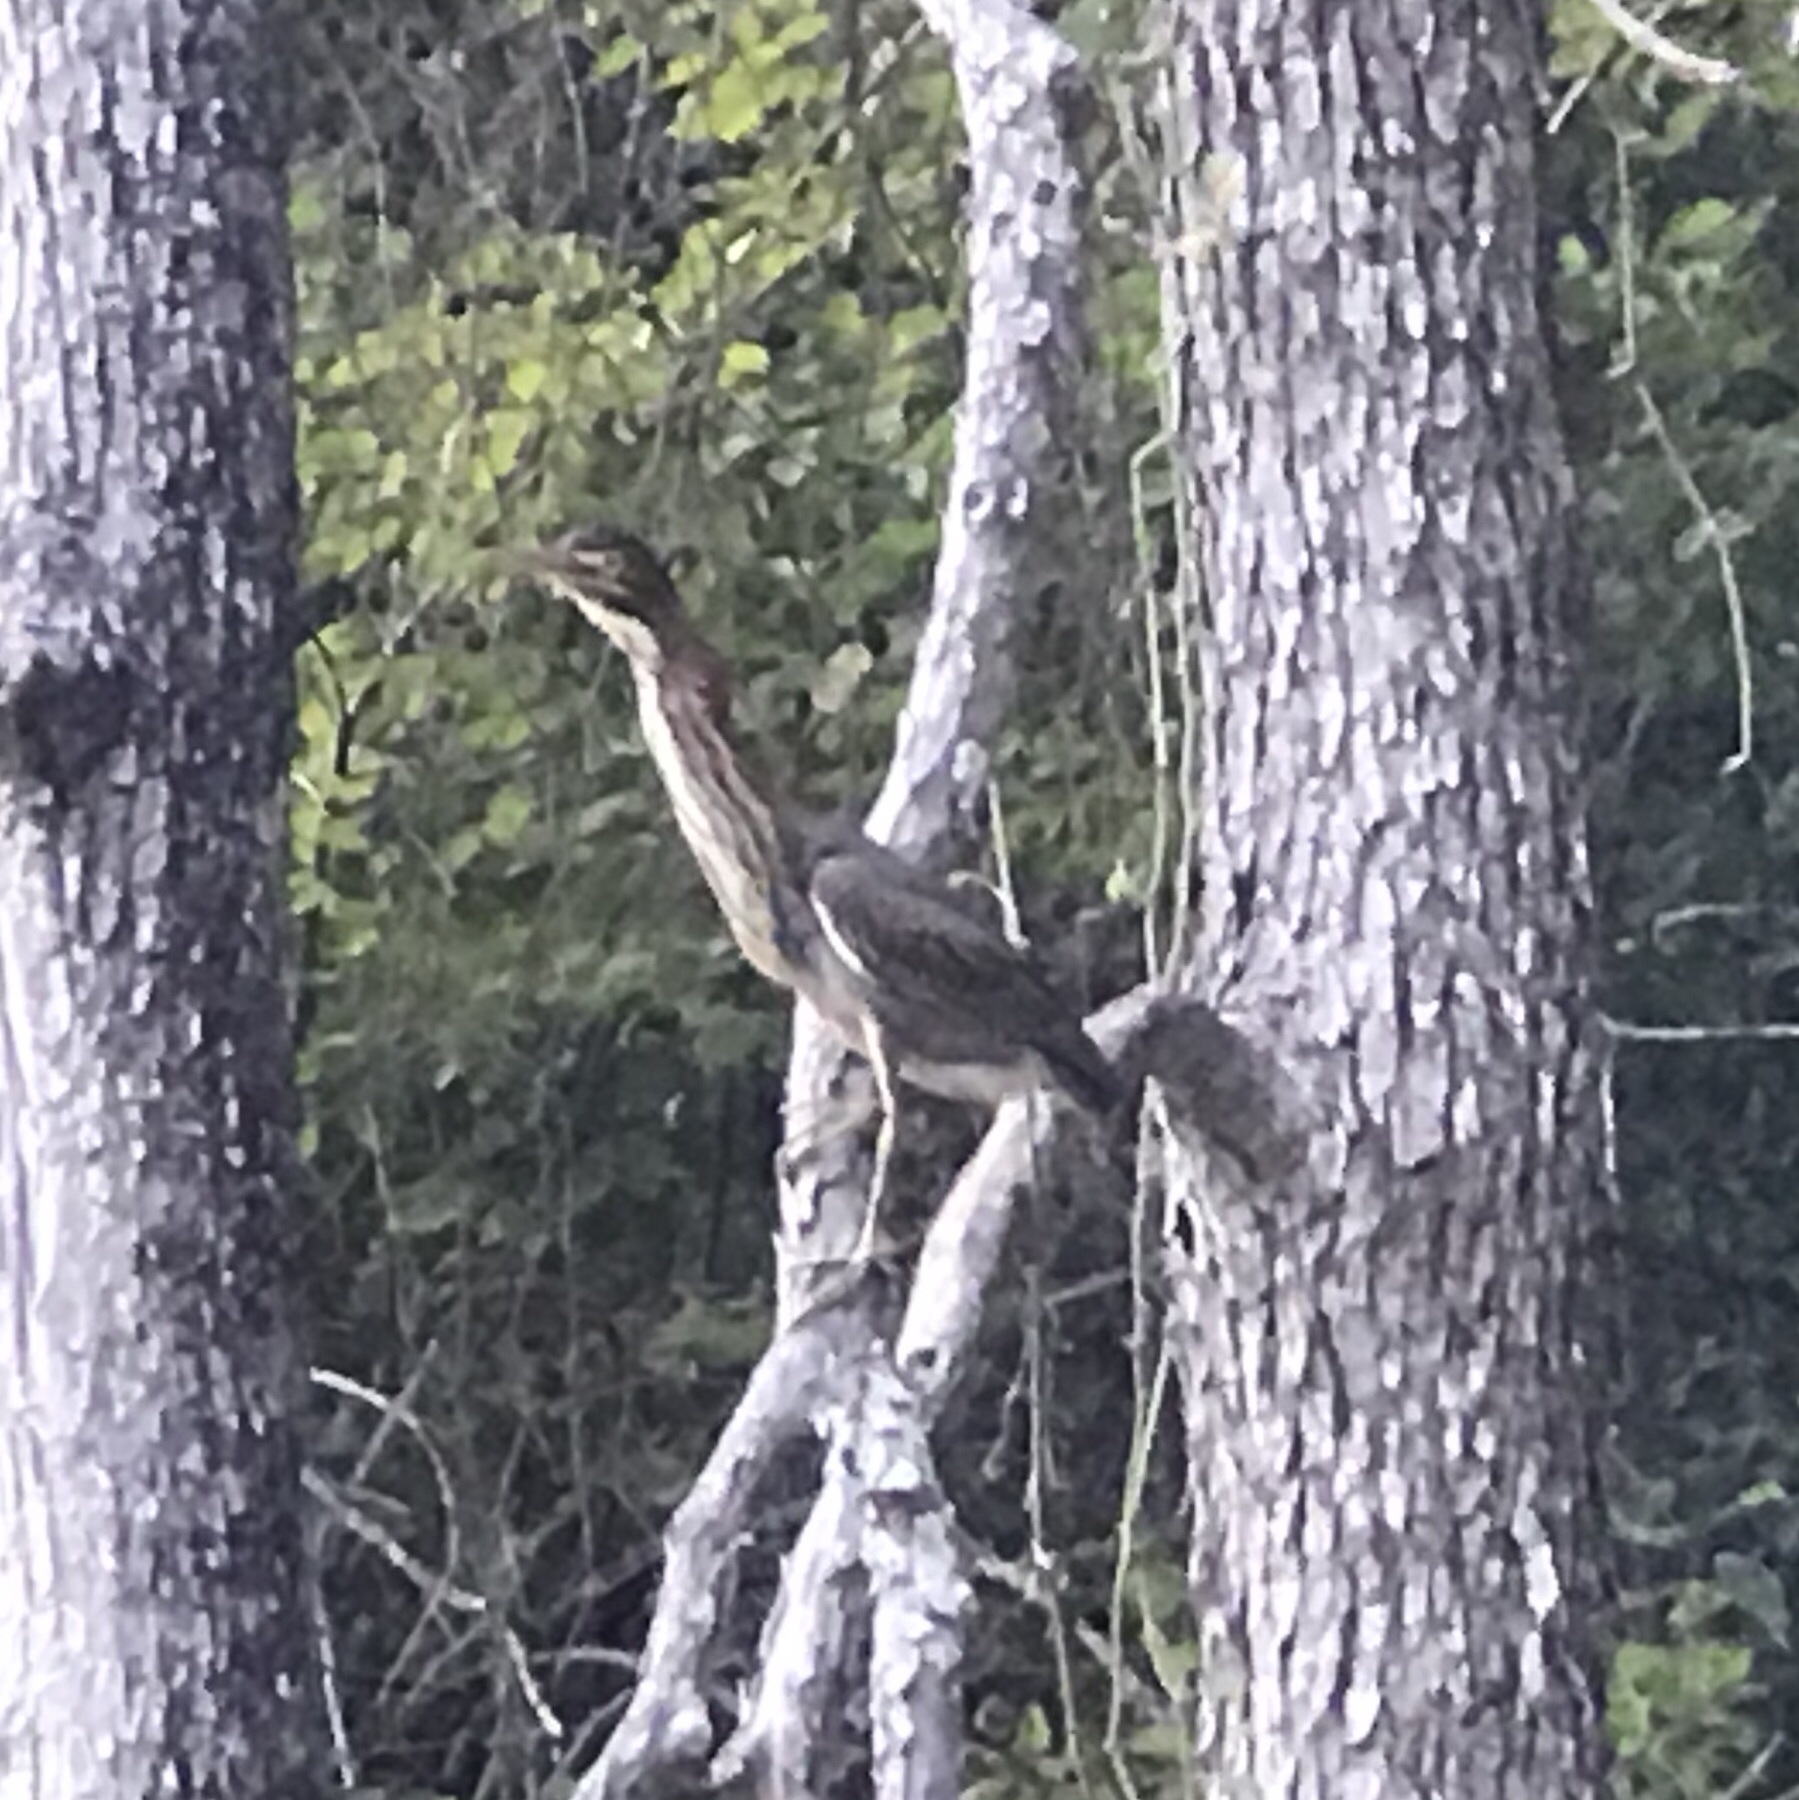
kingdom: Animalia
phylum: Chordata
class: Aves
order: Pelecaniformes
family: Ardeidae
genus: Butorides
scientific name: Butorides virescens
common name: Green heron
